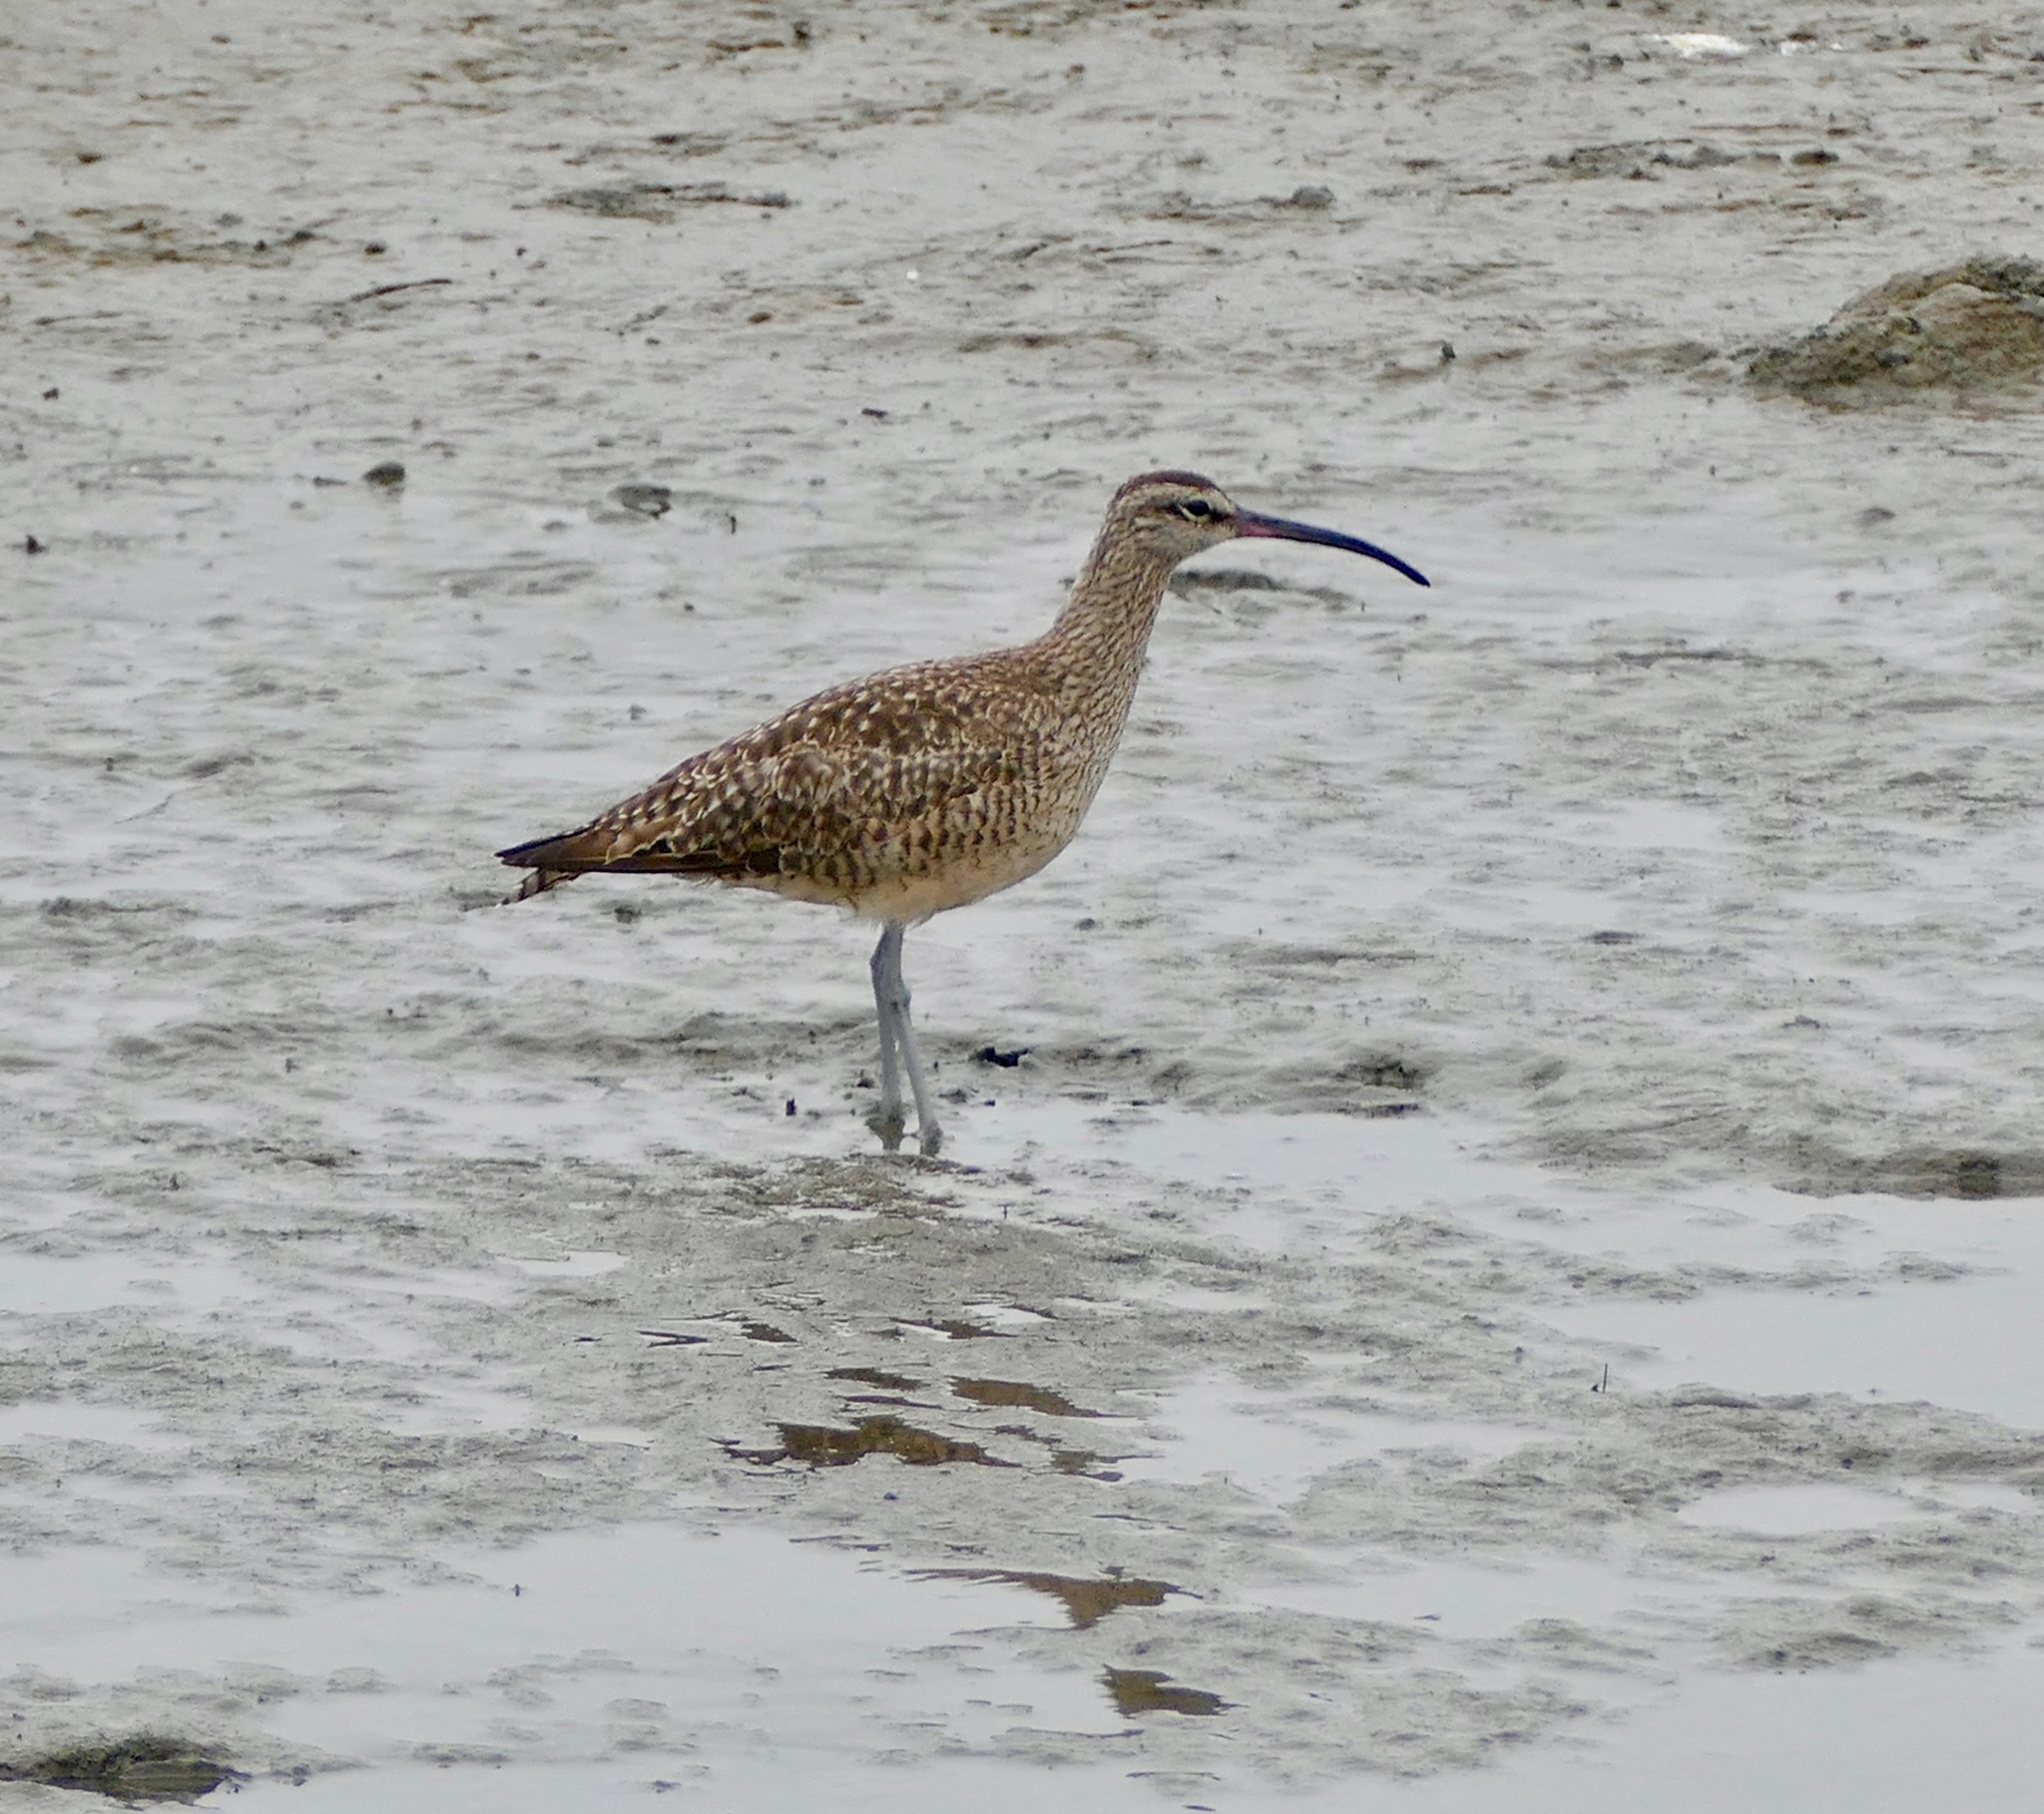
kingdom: Animalia
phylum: Chordata
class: Aves
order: Charadriiformes
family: Scolopacidae
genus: Numenius
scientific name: Numenius phaeopus
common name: Whimbrel
